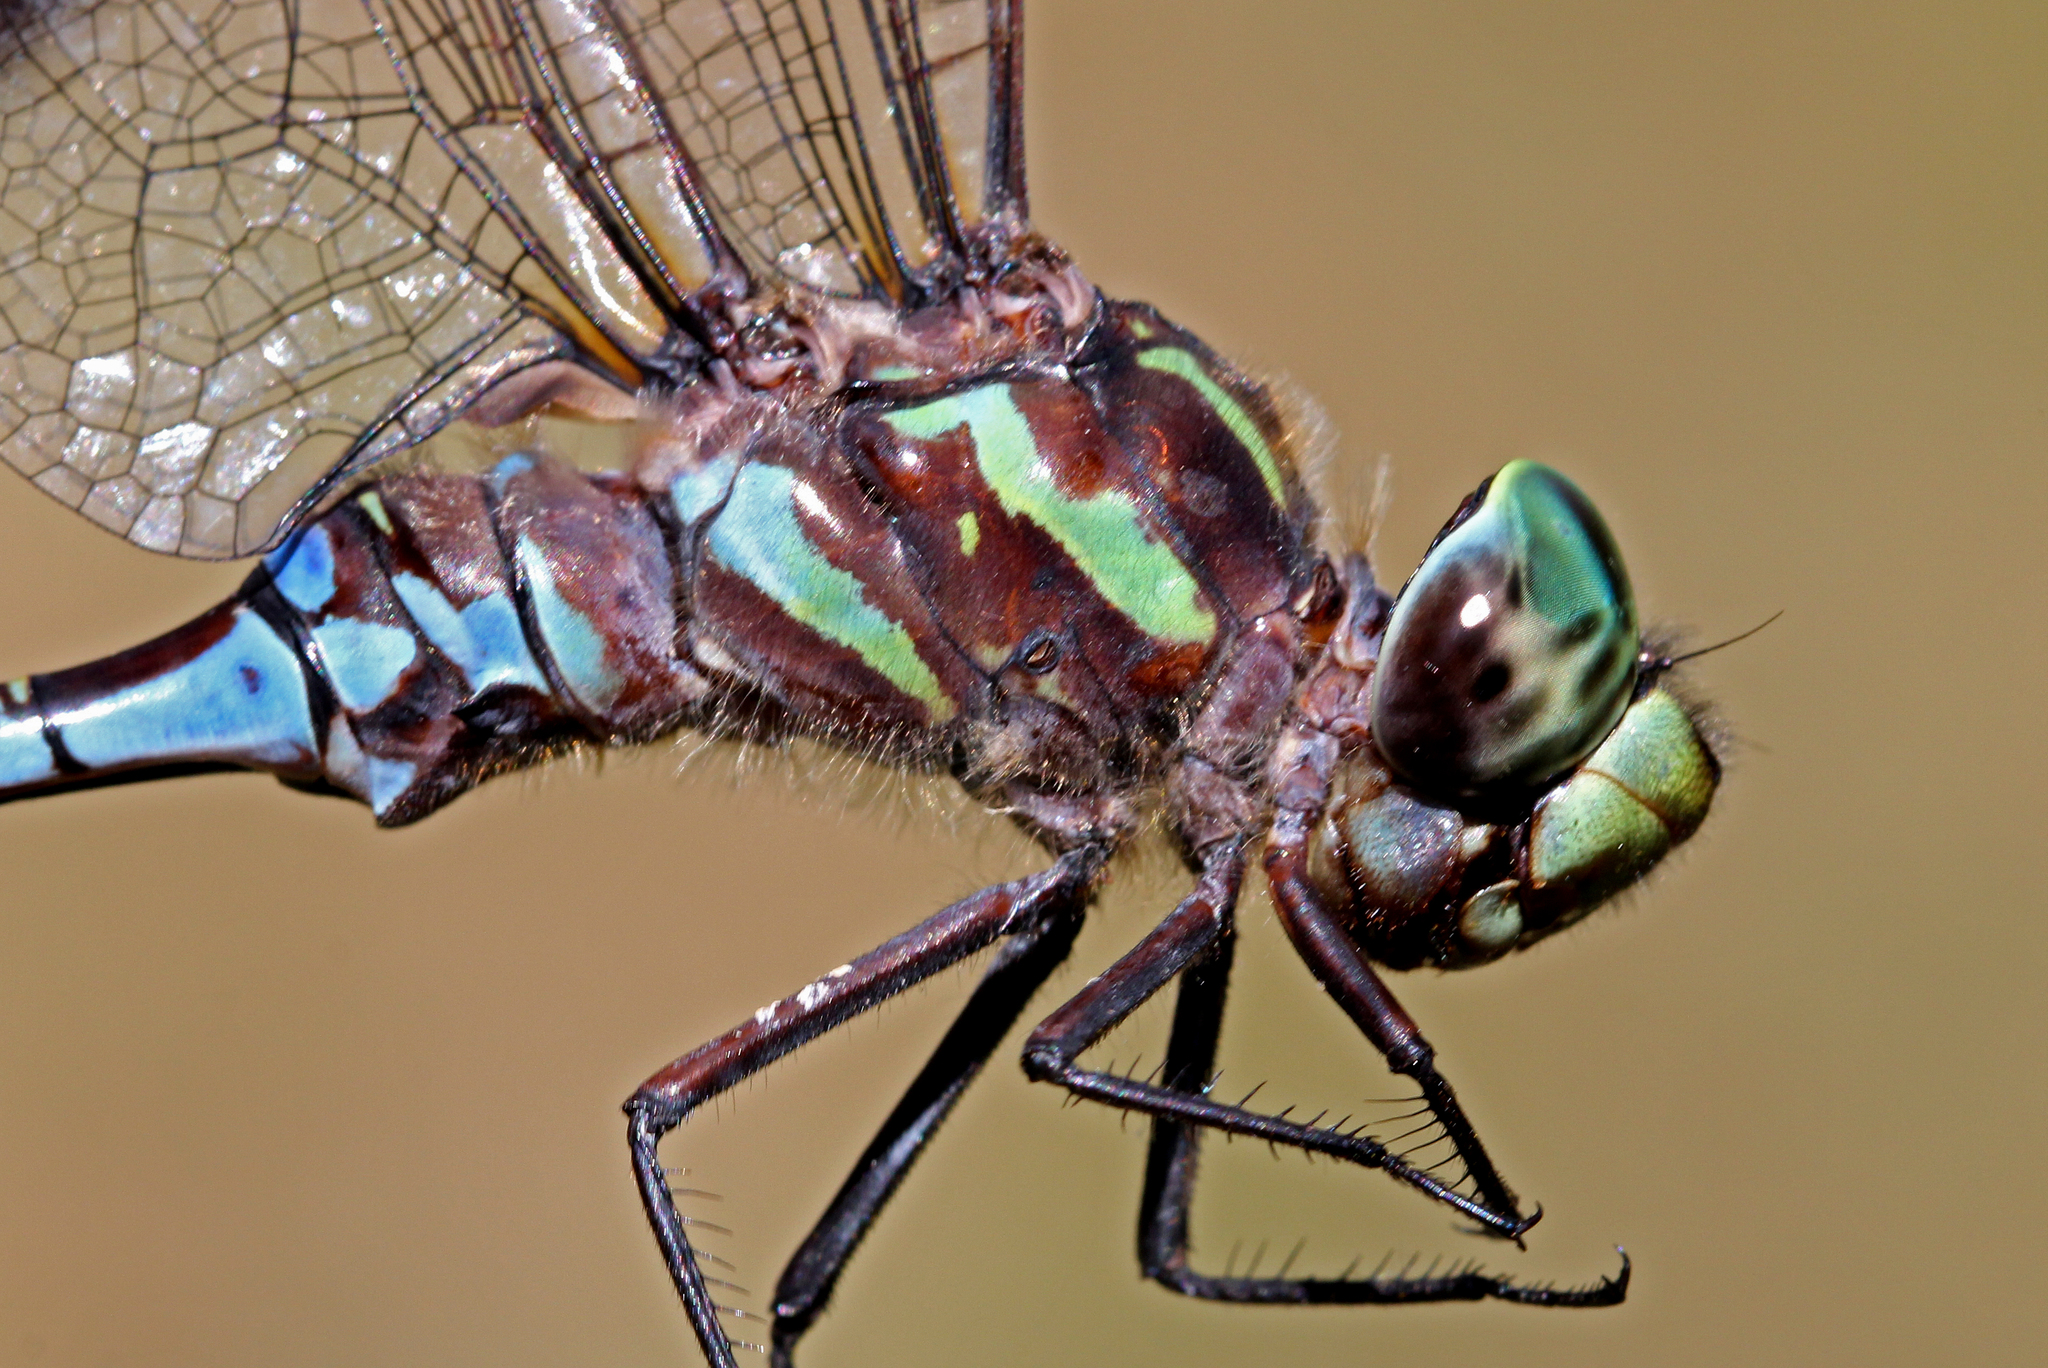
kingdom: Animalia
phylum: Arthropoda
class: Insecta
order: Odonata
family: Aeshnidae
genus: Aeshna
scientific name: Aeshna canadensis
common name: Canada darner
